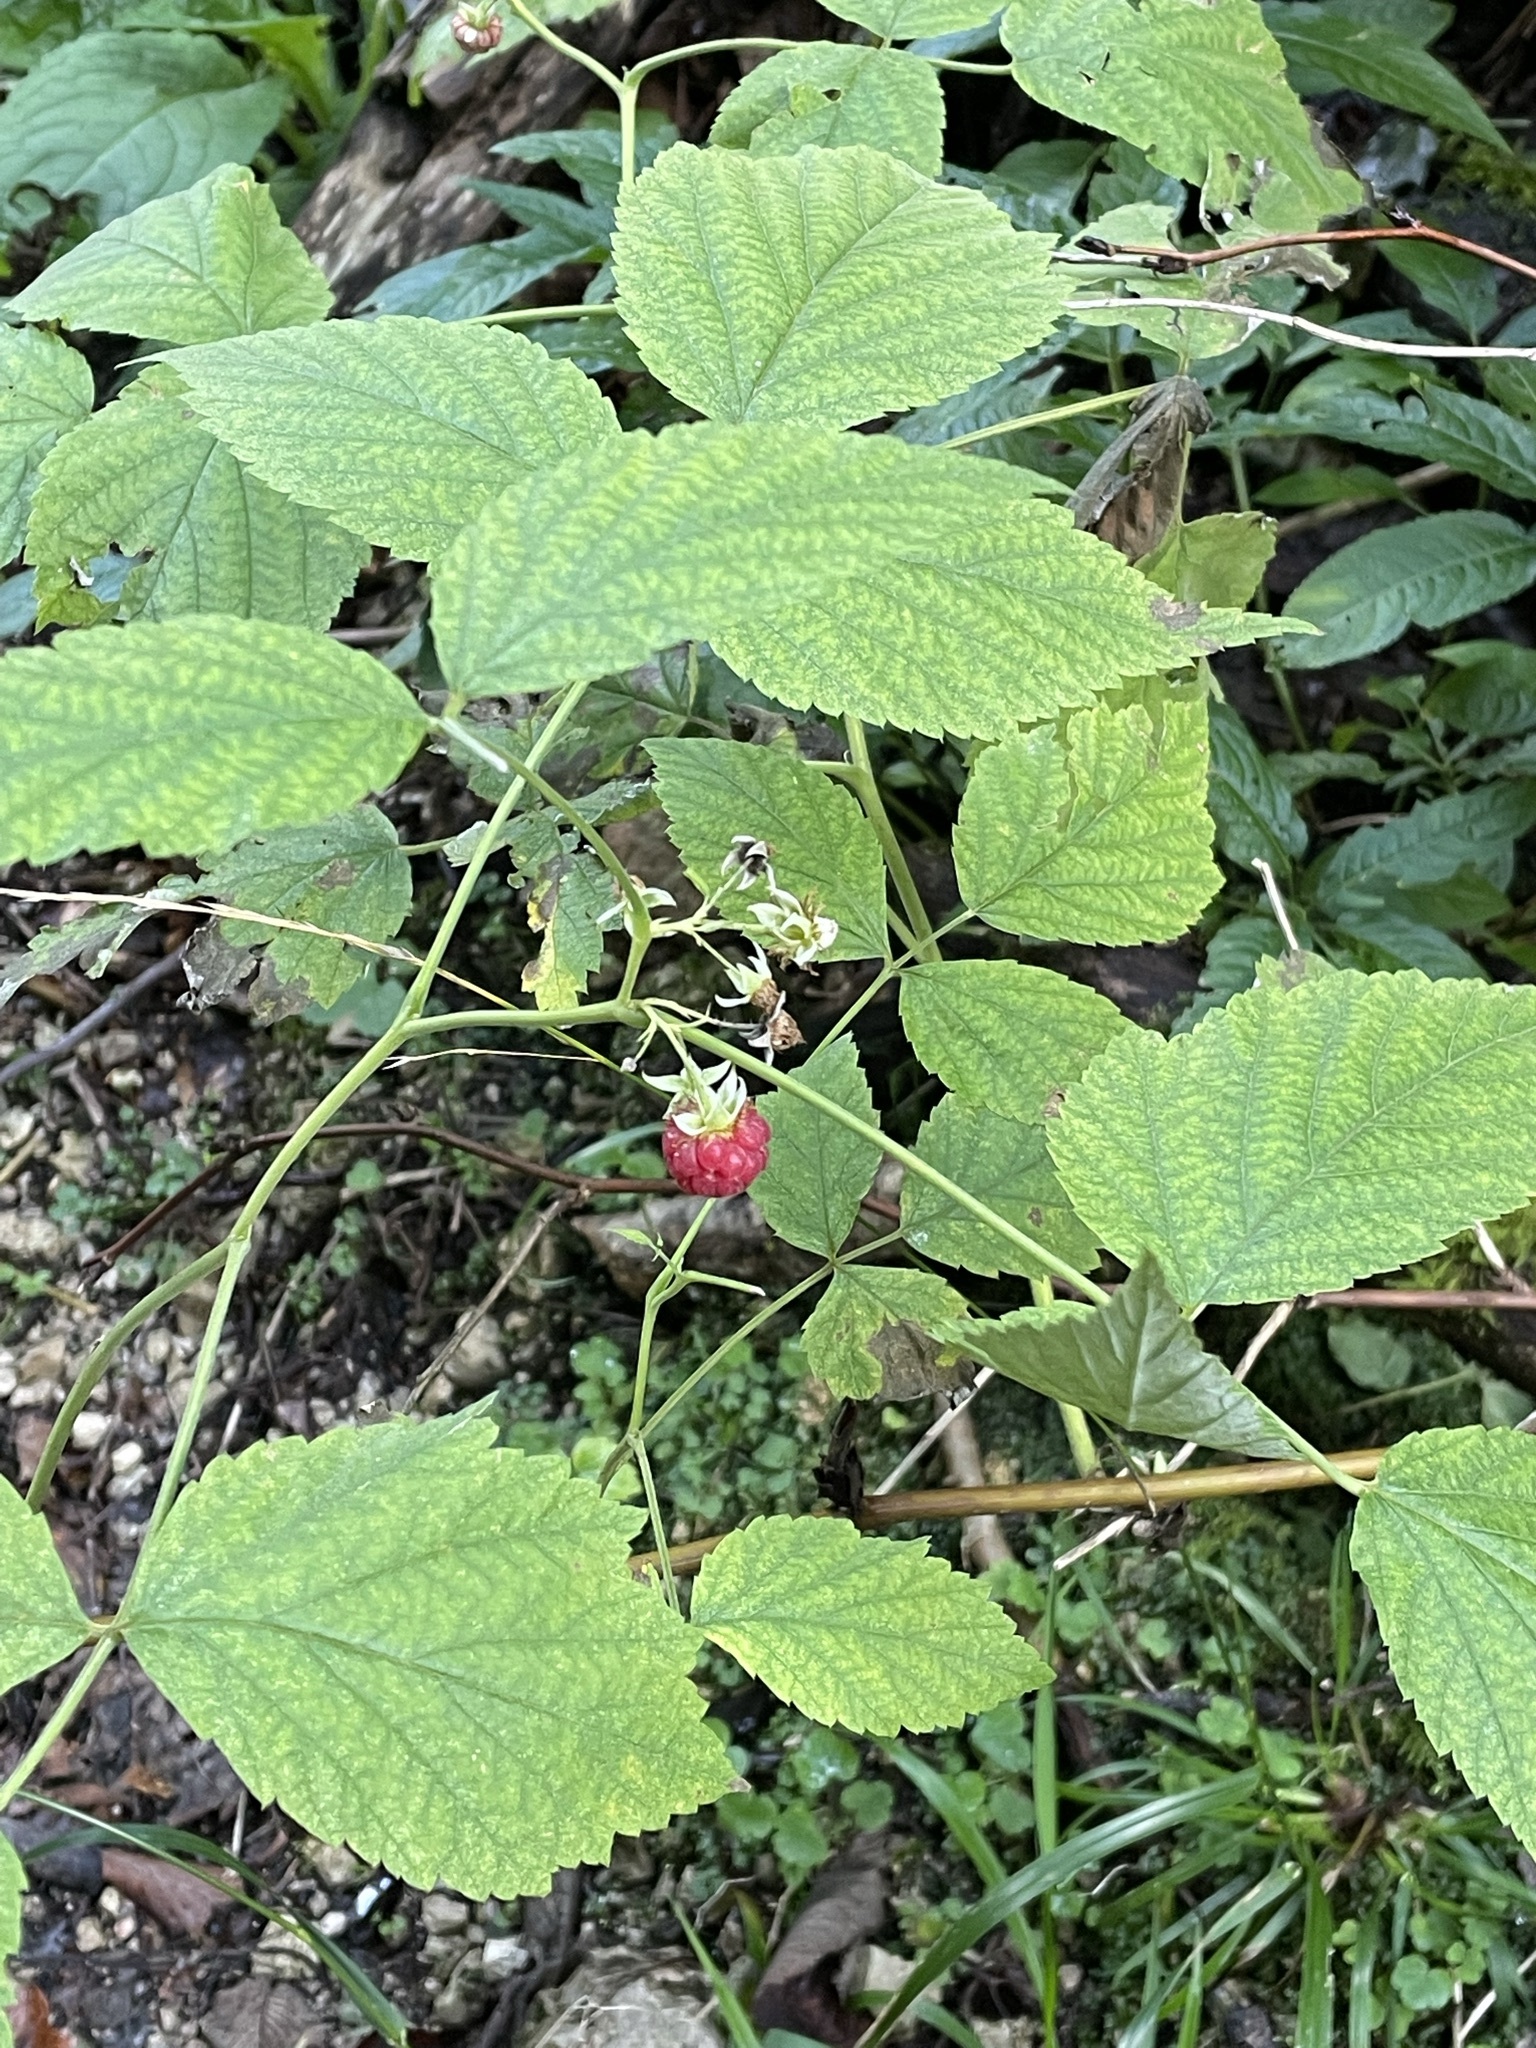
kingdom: Plantae
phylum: Tracheophyta
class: Magnoliopsida
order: Rosales
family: Rosaceae
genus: Rubus
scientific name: Rubus idaeus
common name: Raspberry
